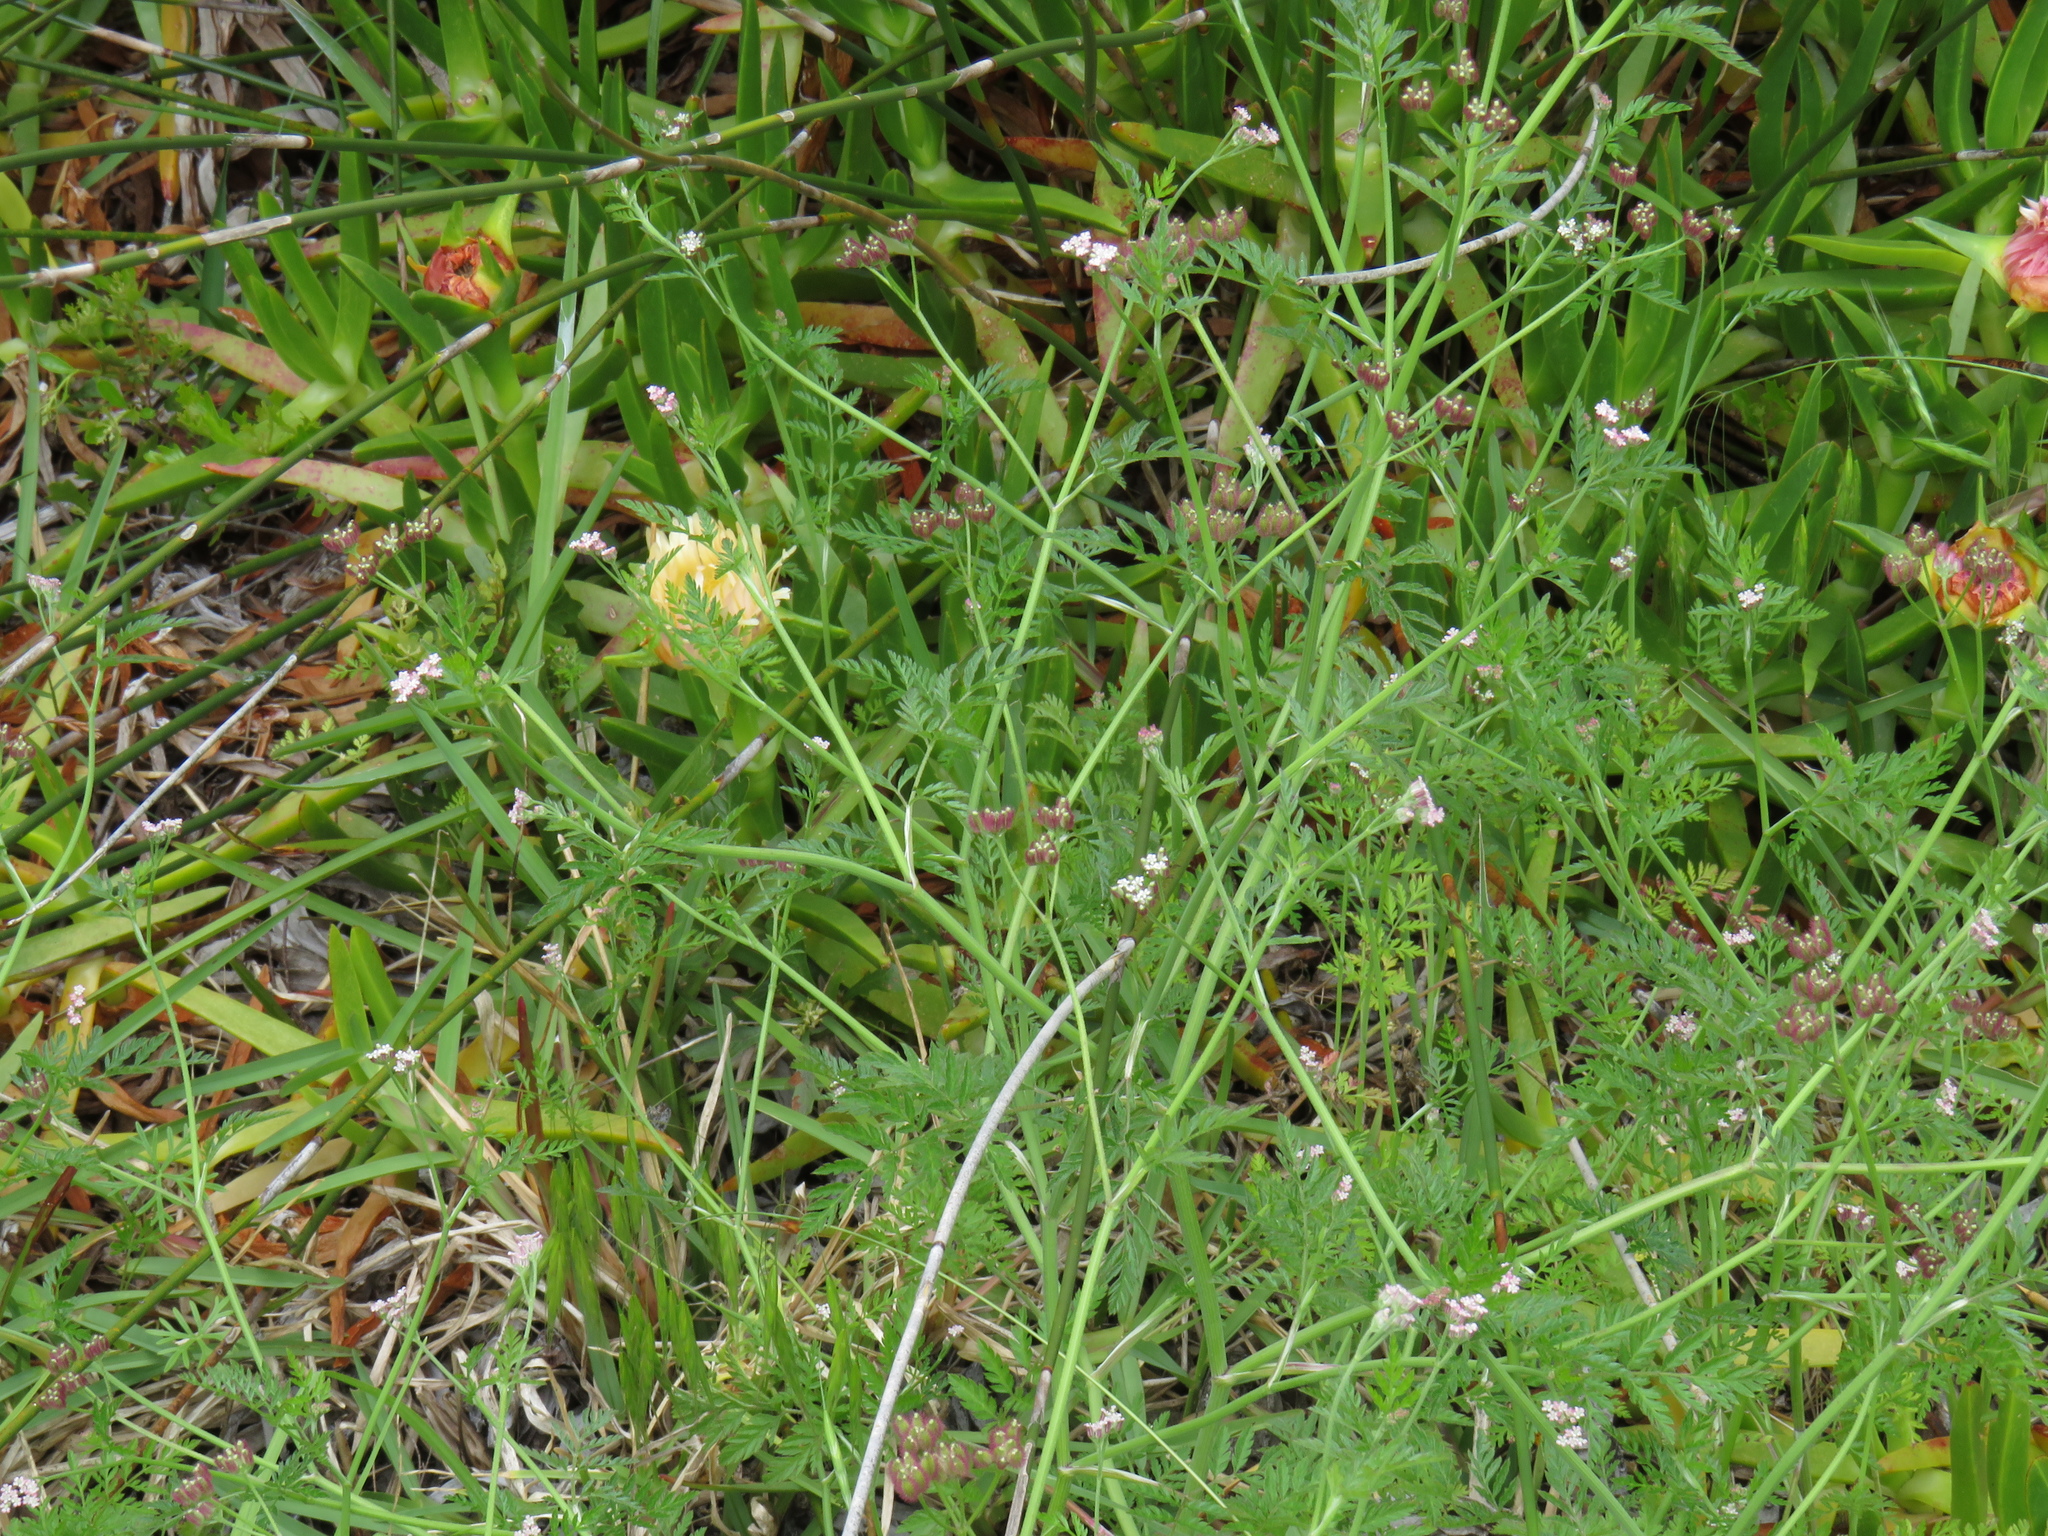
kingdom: Plantae
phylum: Tracheophyta
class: Magnoliopsida
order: Apiales
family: Apiaceae
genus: Torilis
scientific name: Torilis africana
